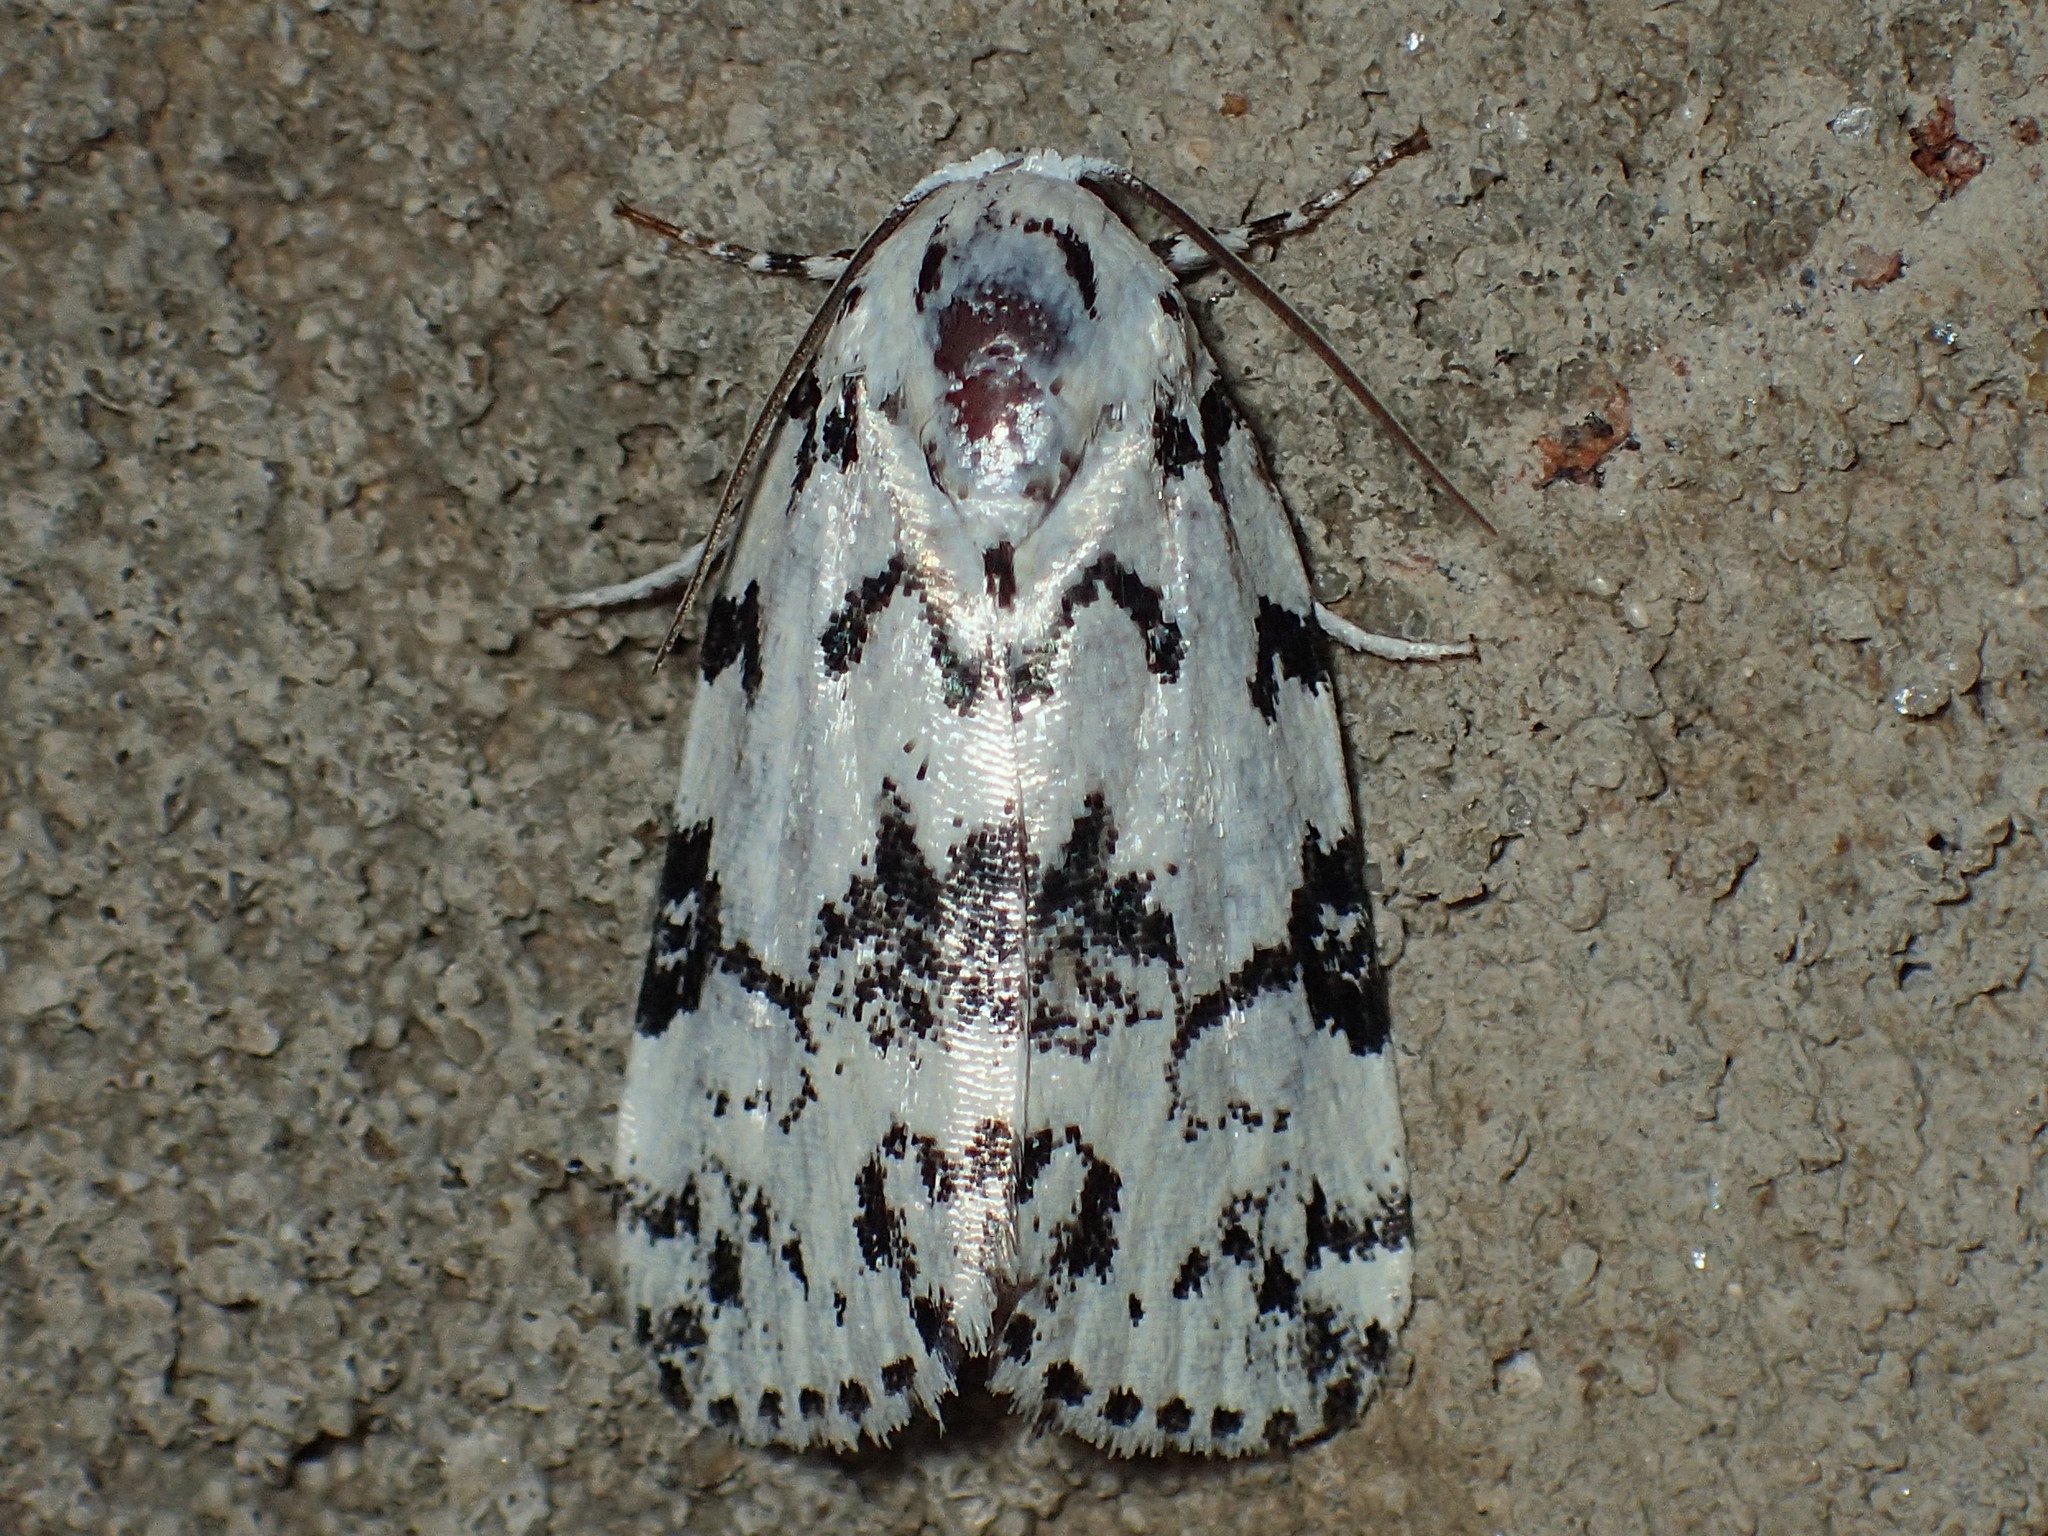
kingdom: Animalia
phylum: Arthropoda
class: Insecta
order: Lepidoptera
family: Noctuidae
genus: Polygrammate
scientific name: Polygrammate hebraeicum
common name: Hebrew moth
